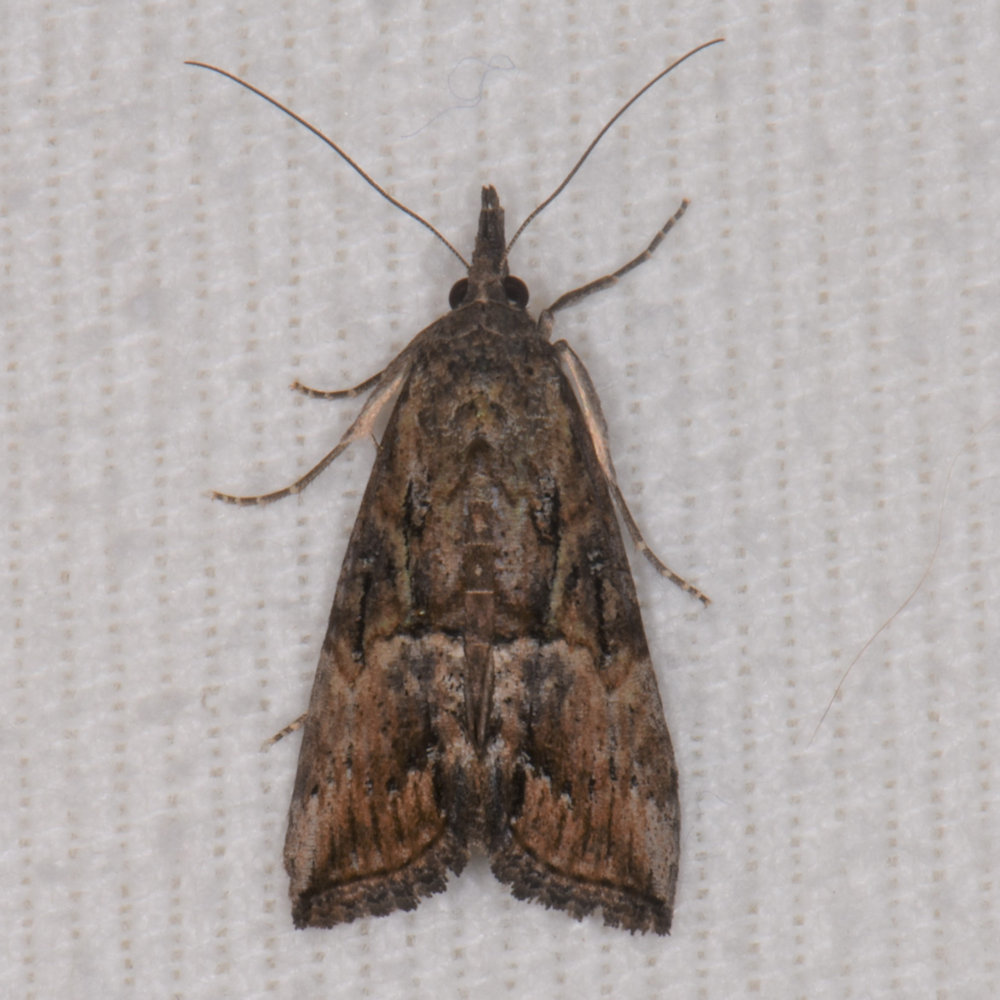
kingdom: Animalia
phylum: Arthropoda
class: Insecta
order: Lepidoptera
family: Erebidae
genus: Hypena
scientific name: Hypena scabra
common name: Green cloverworm
